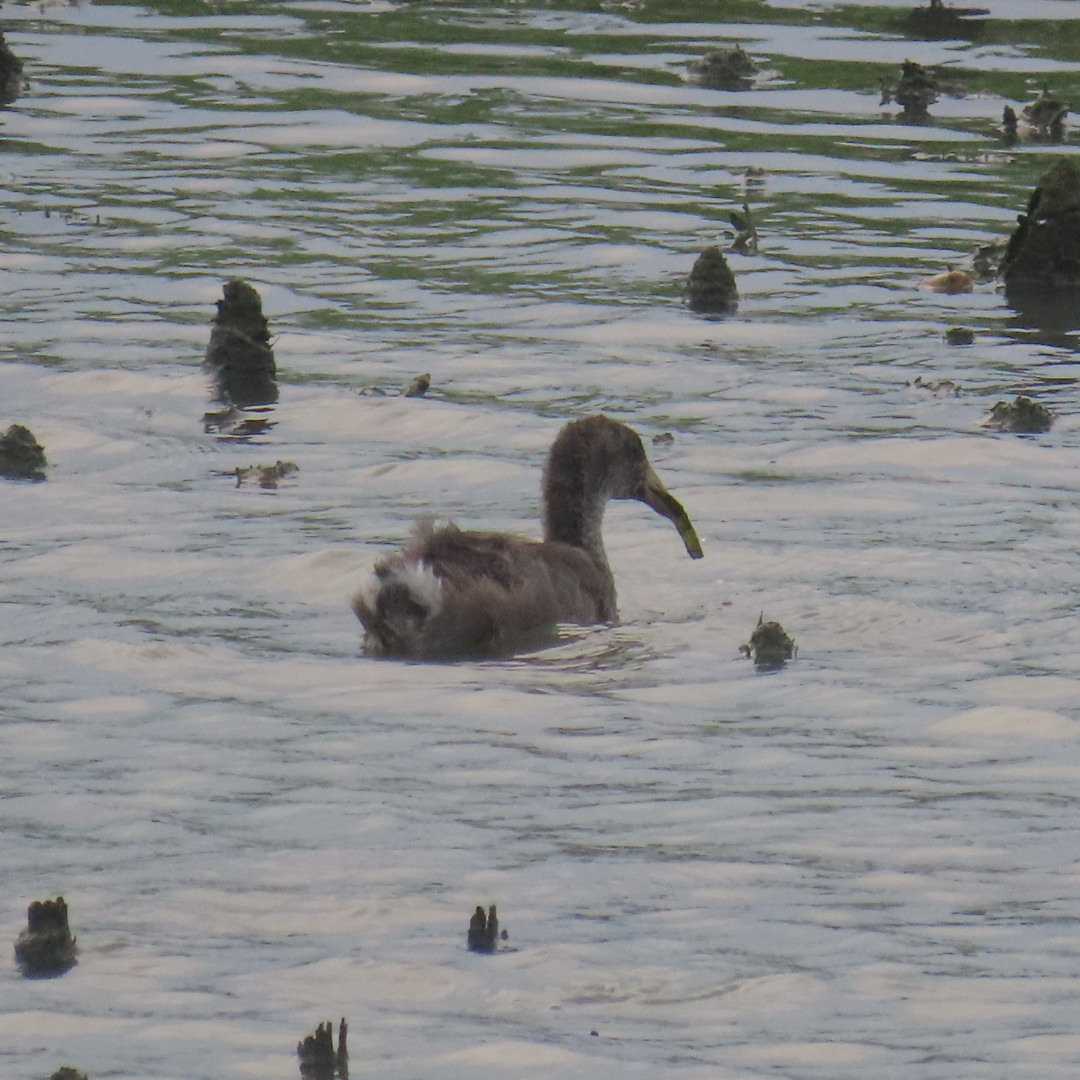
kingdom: Animalia
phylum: Chordata
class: Aves
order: Gruiformes
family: Rallidae
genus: Gallinula
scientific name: Gallinula chloropus
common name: Common moorhen
